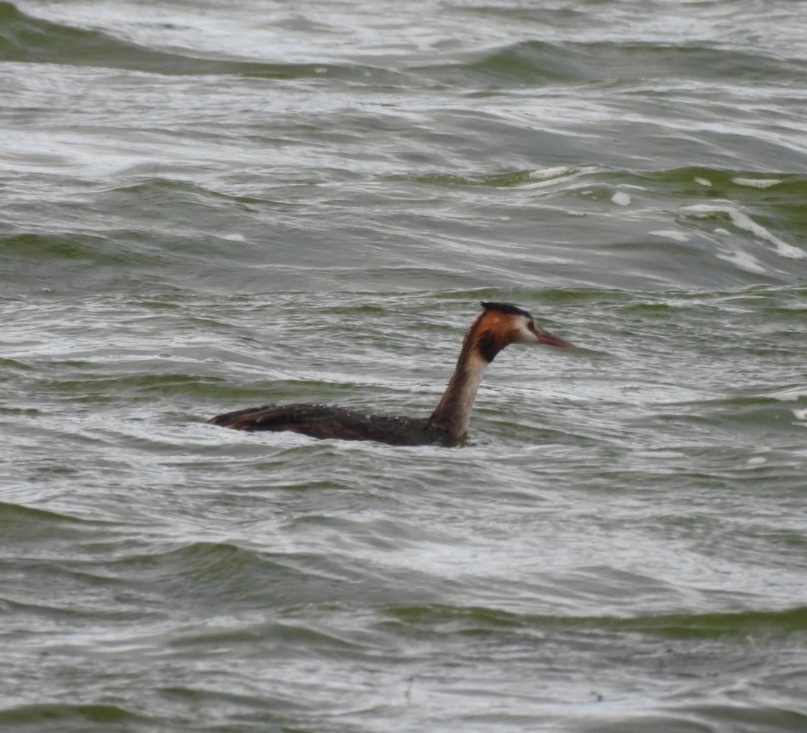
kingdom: Animalia
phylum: Chordata
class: Aves
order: Podicipediformes
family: Podicipedidae
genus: Podiceps
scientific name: Podiceps cristatus
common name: Great crested grebe
